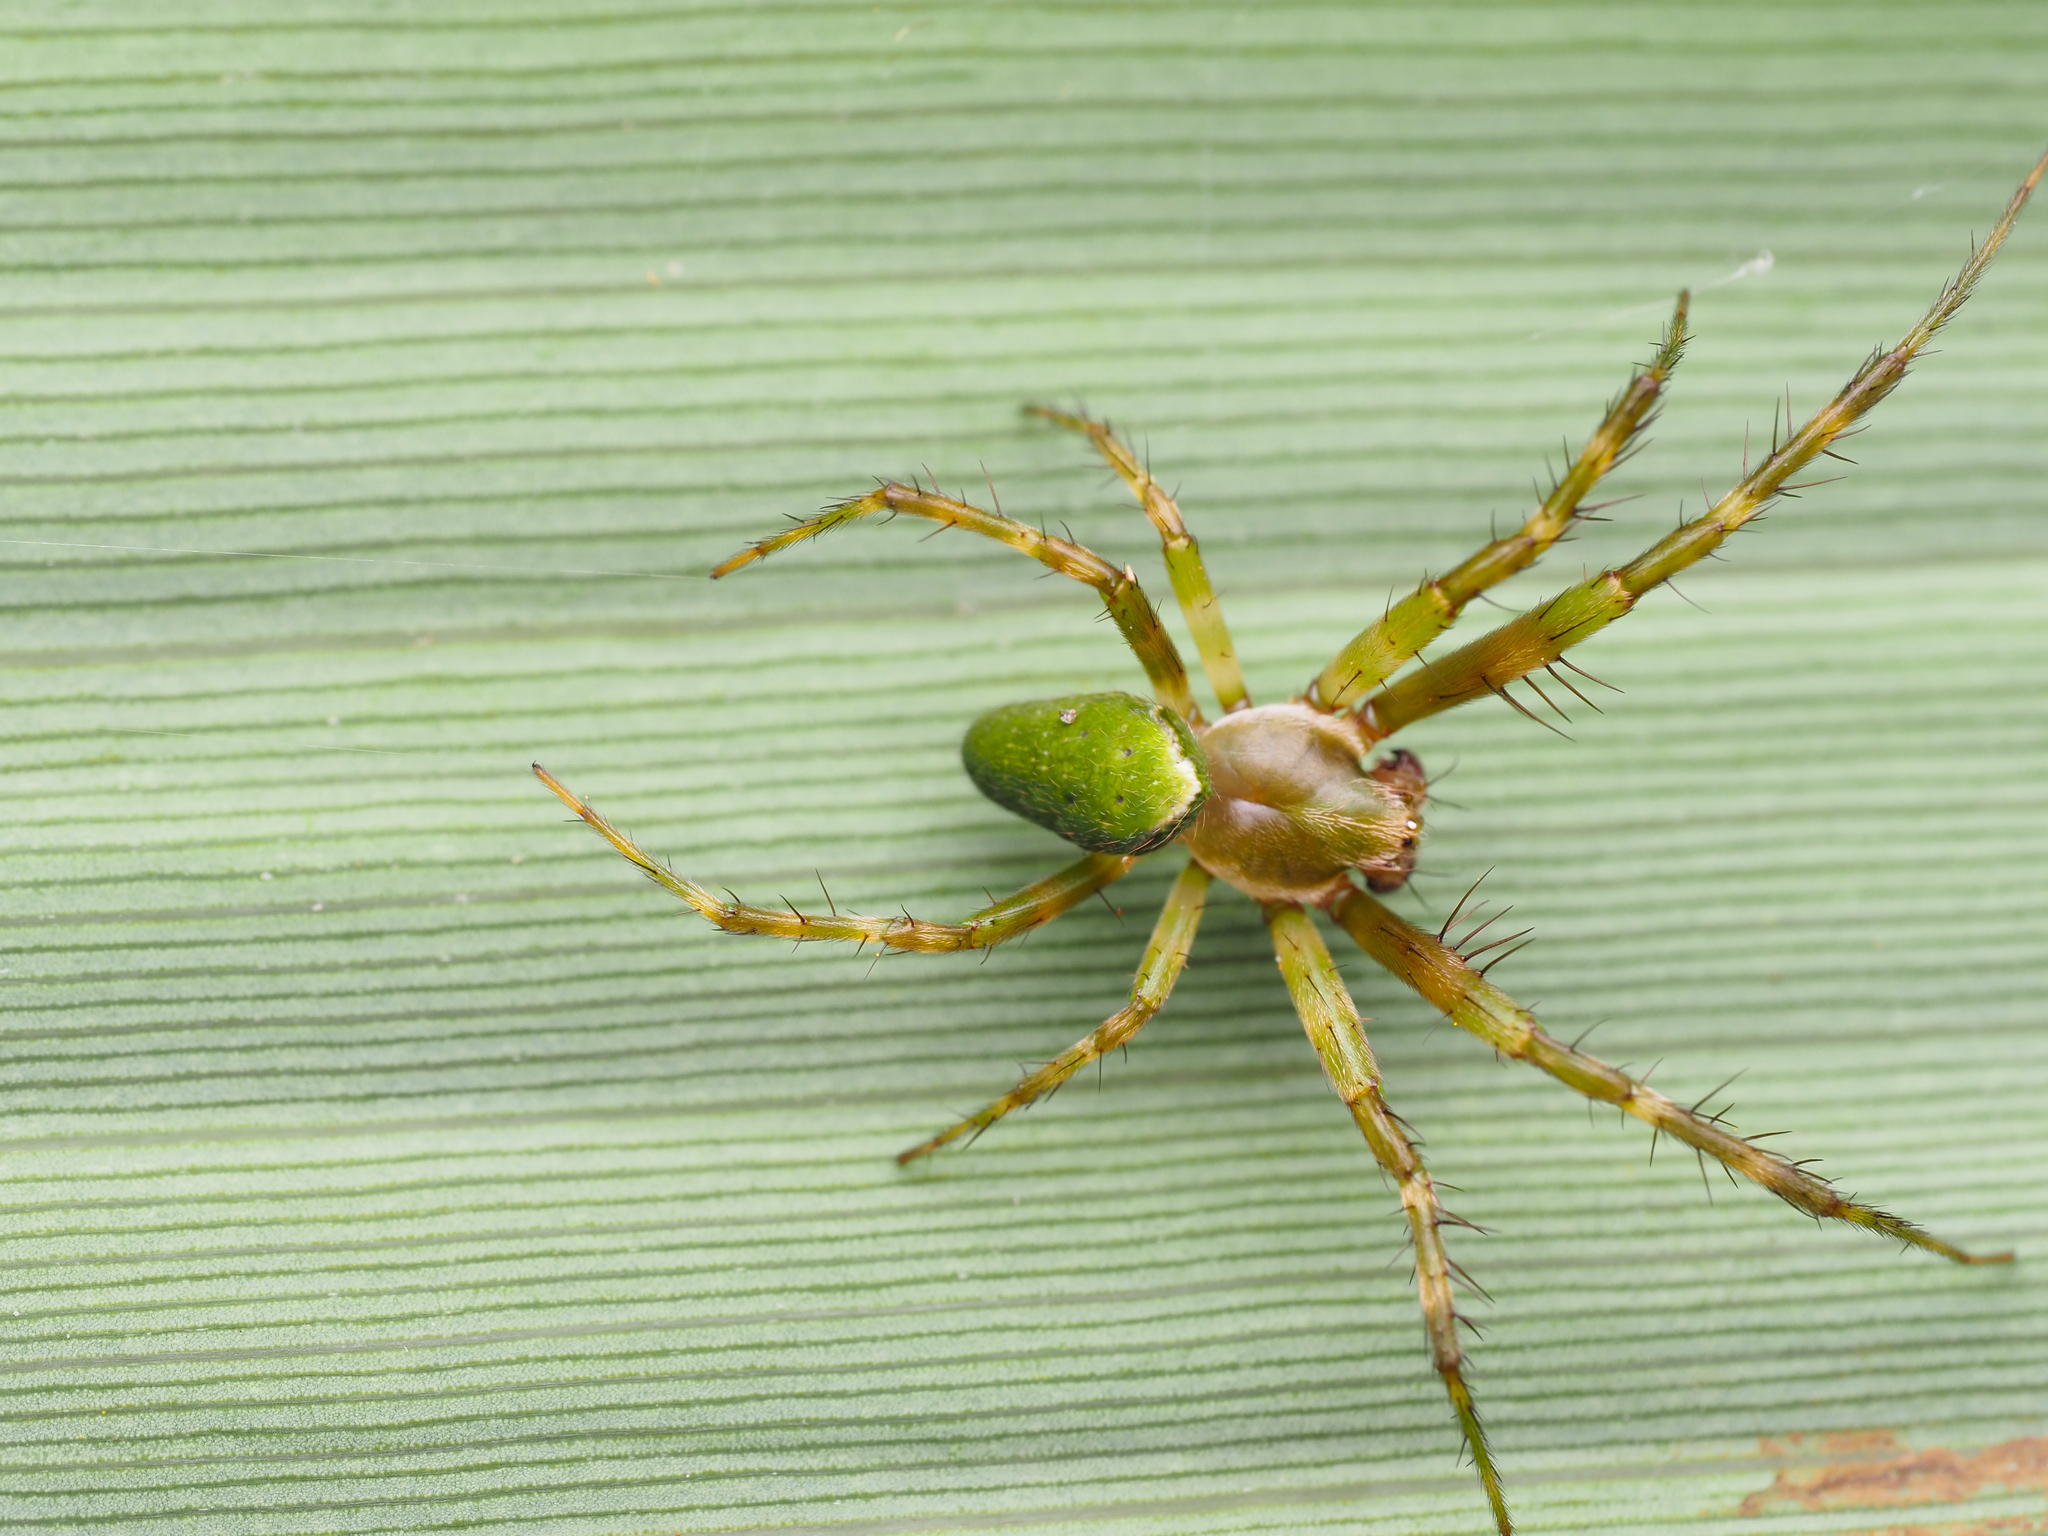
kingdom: Animalia
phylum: Arthropoda
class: Arachnida
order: Araneae
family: Araneidae
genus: Colaranea
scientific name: Colaranea viriditas
